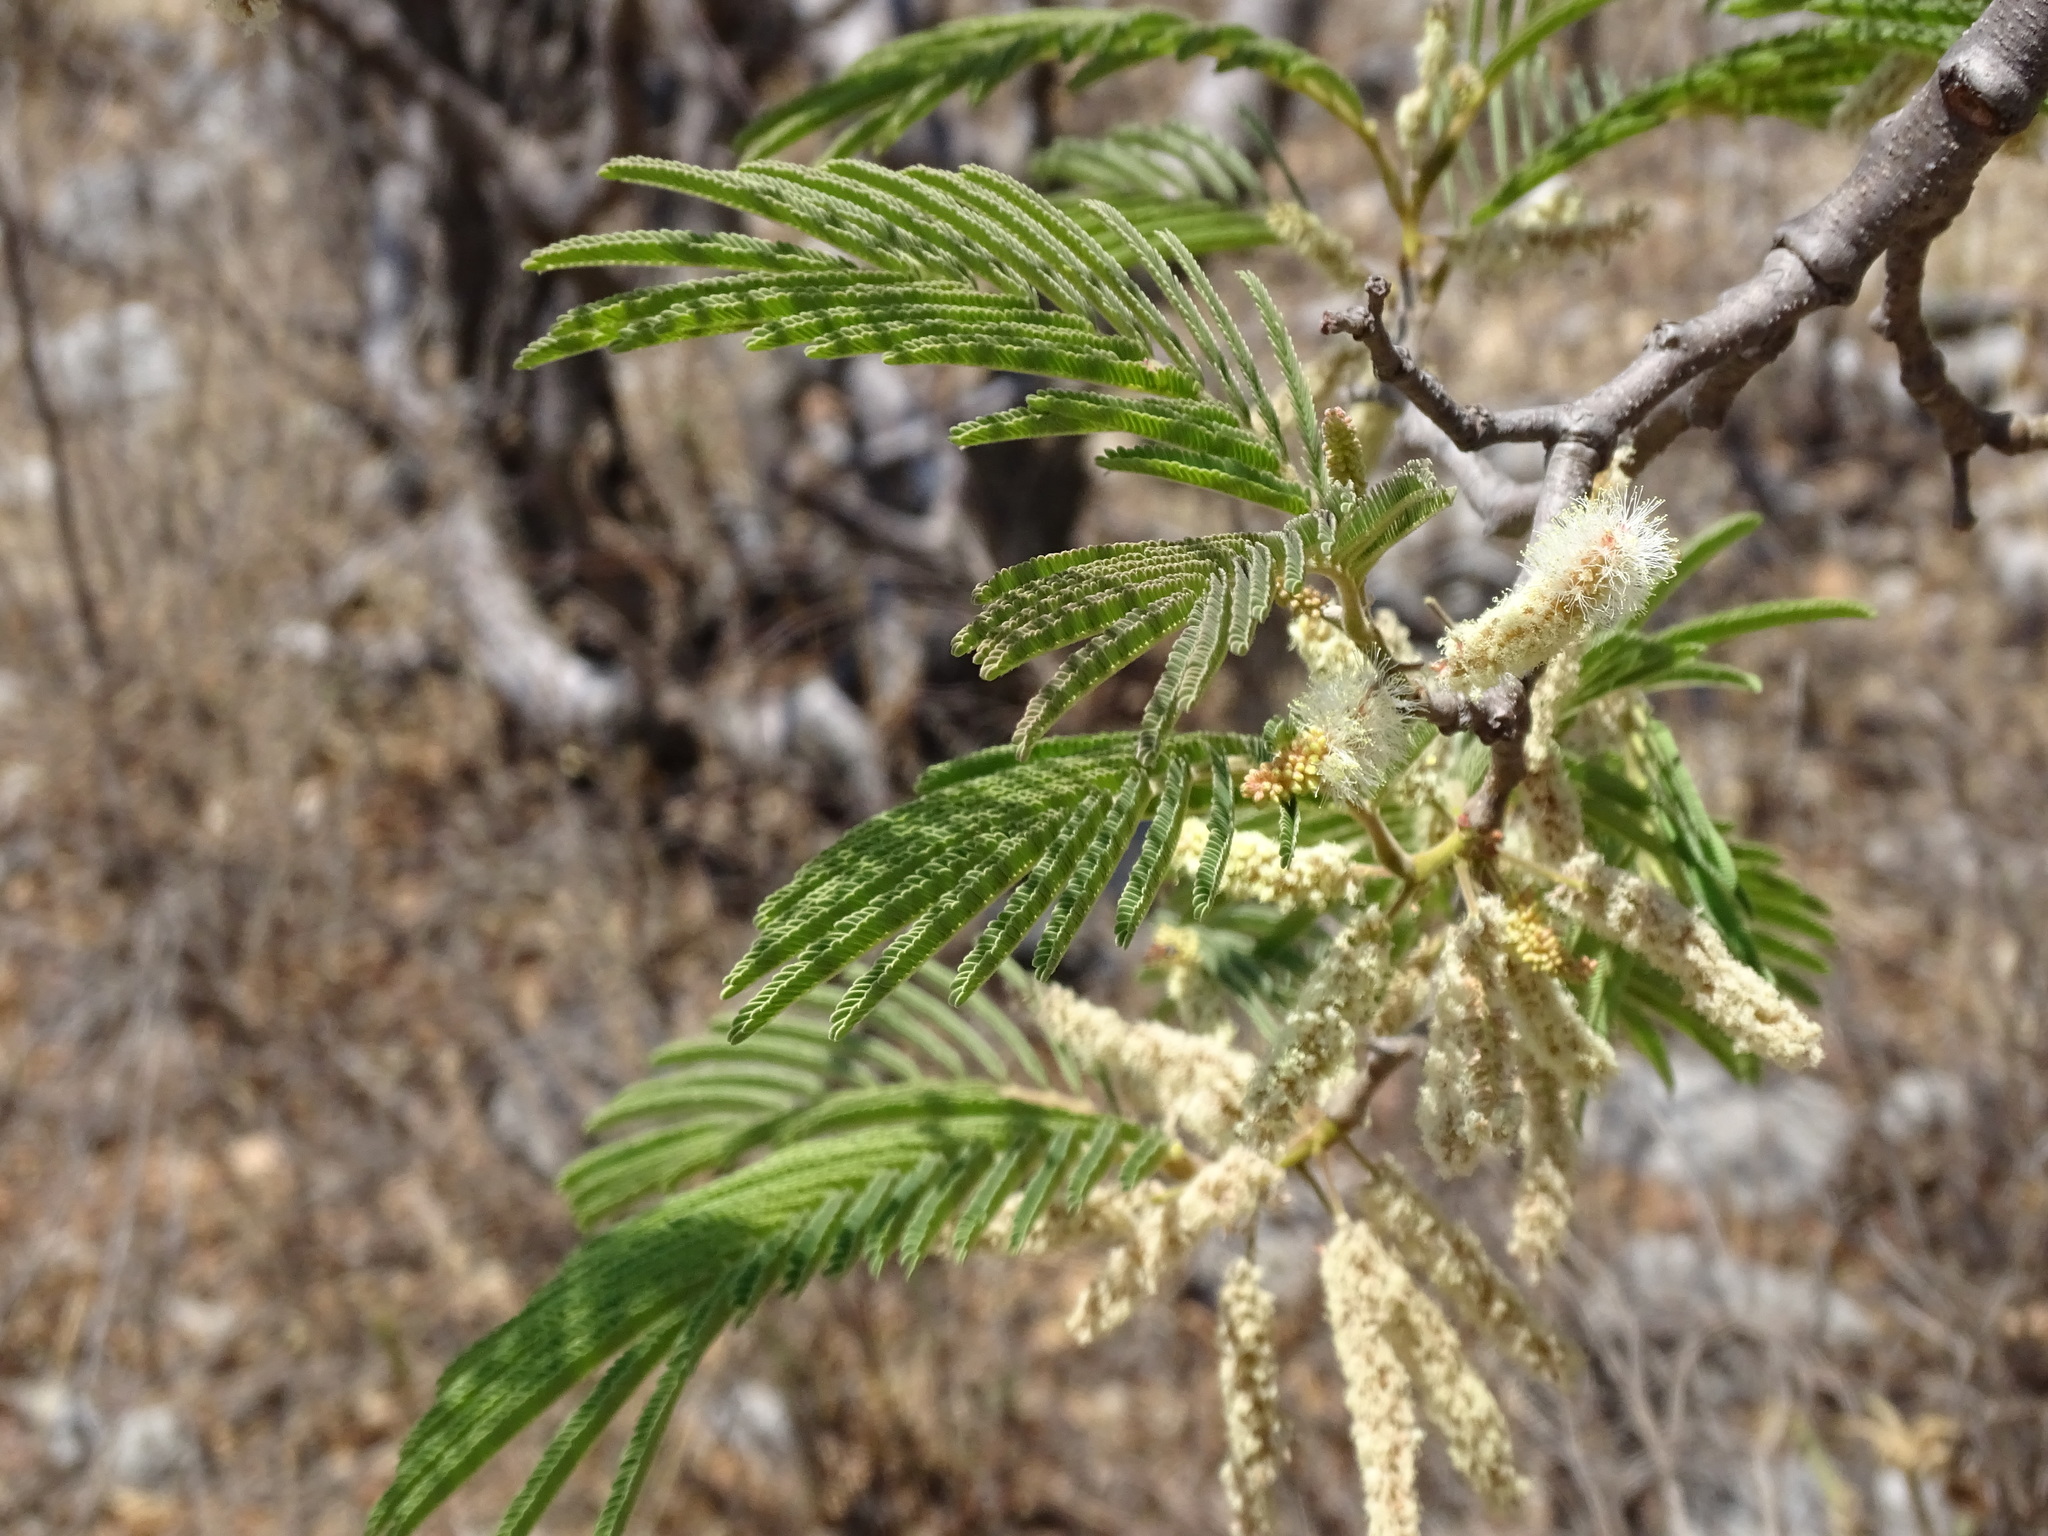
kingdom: Plantae
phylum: Tracheophyta
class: Magnoliopsida
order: Fabales
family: Fabaceae
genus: Mariosousa
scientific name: Mariosousa coulteri
